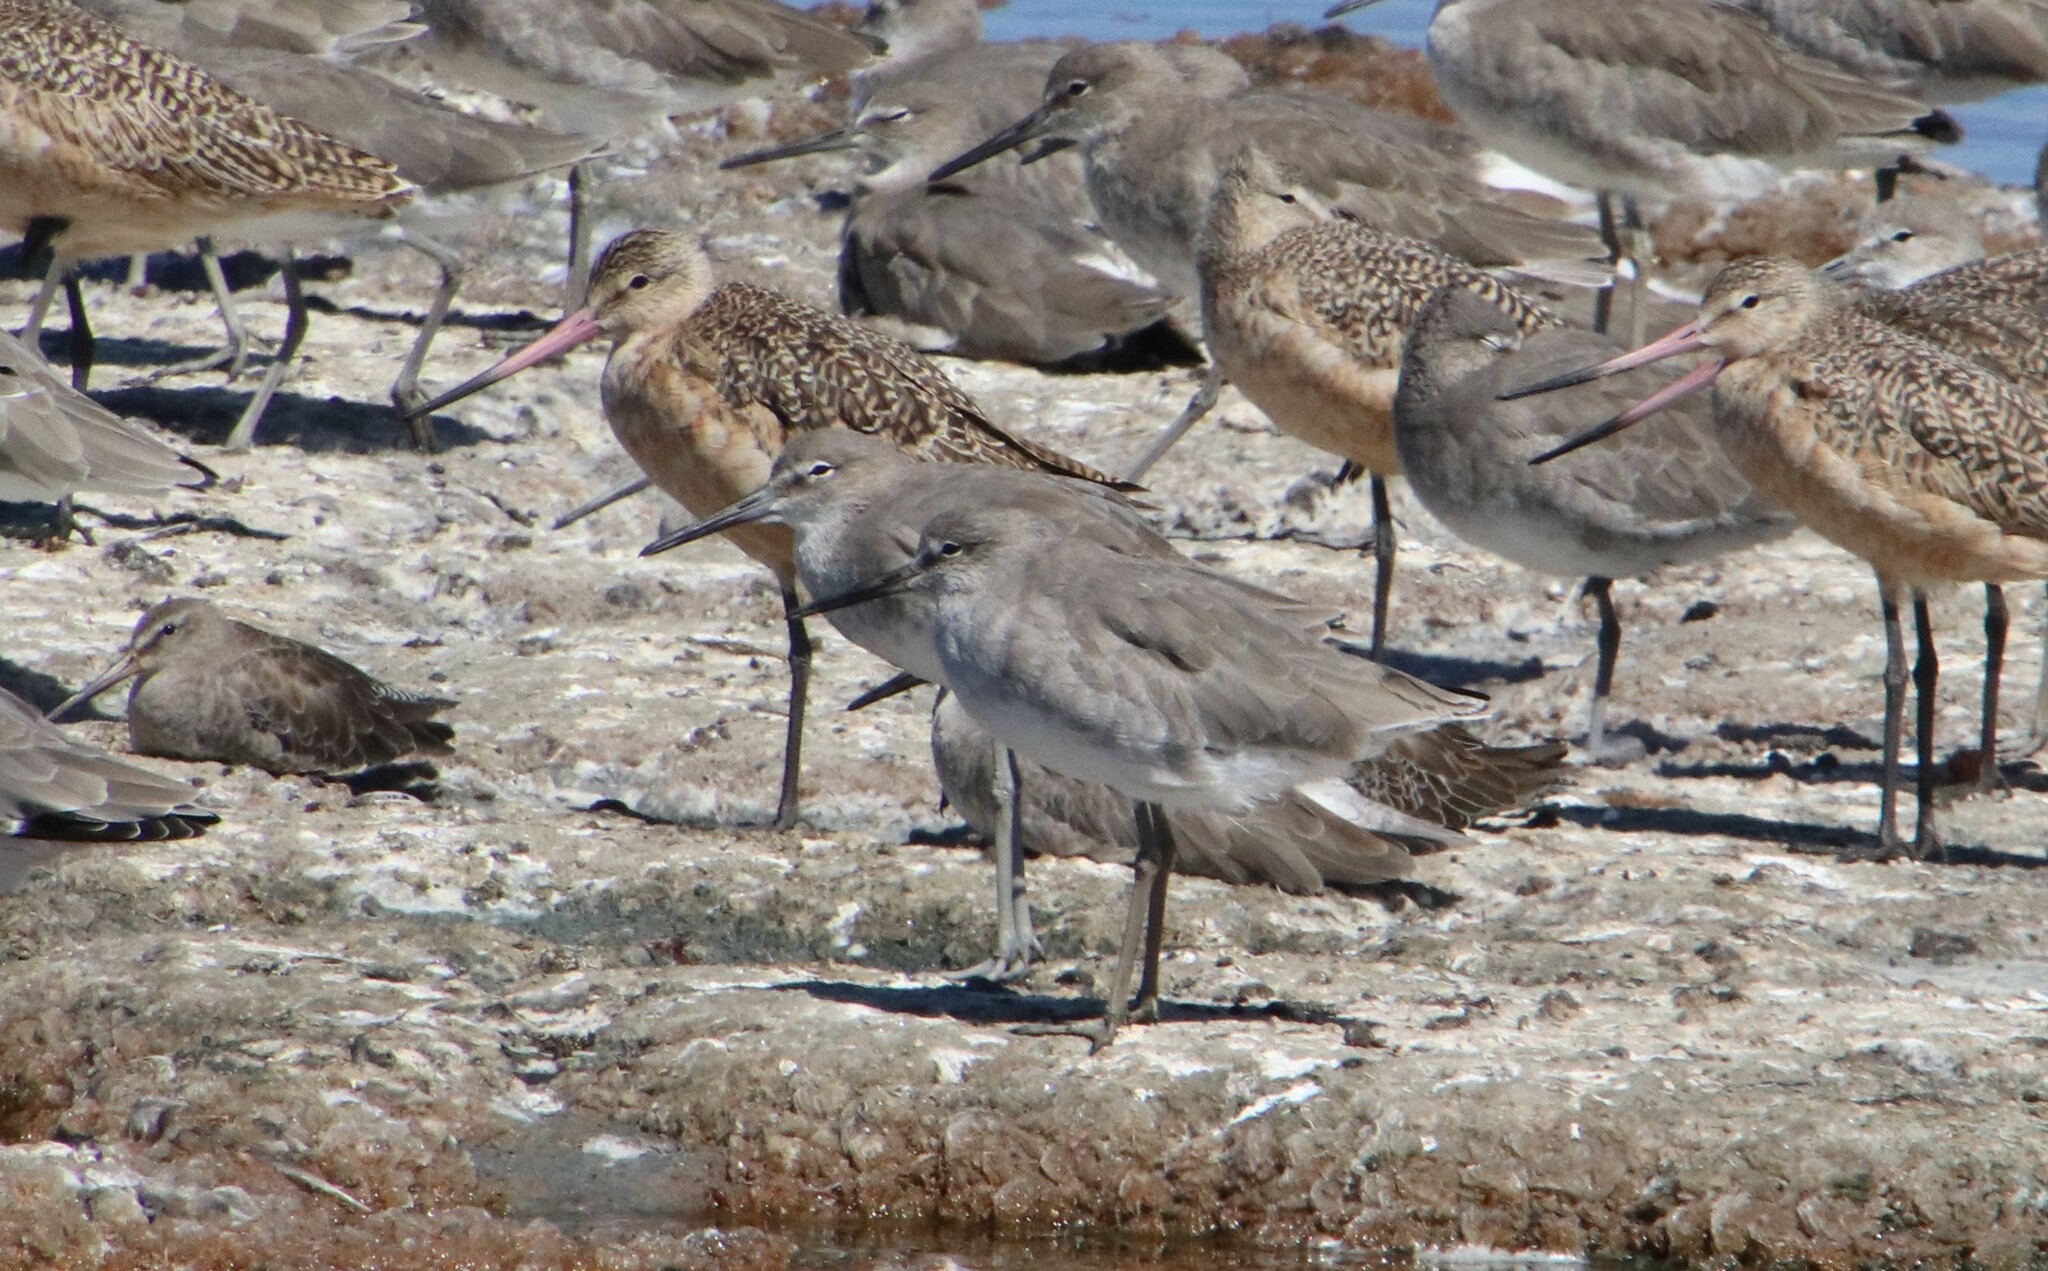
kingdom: Animalia
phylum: Chordata
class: Aves
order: Charadriiformes
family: Scolopacidae
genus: Tringa
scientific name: Tringa semipalmata
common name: Willet
